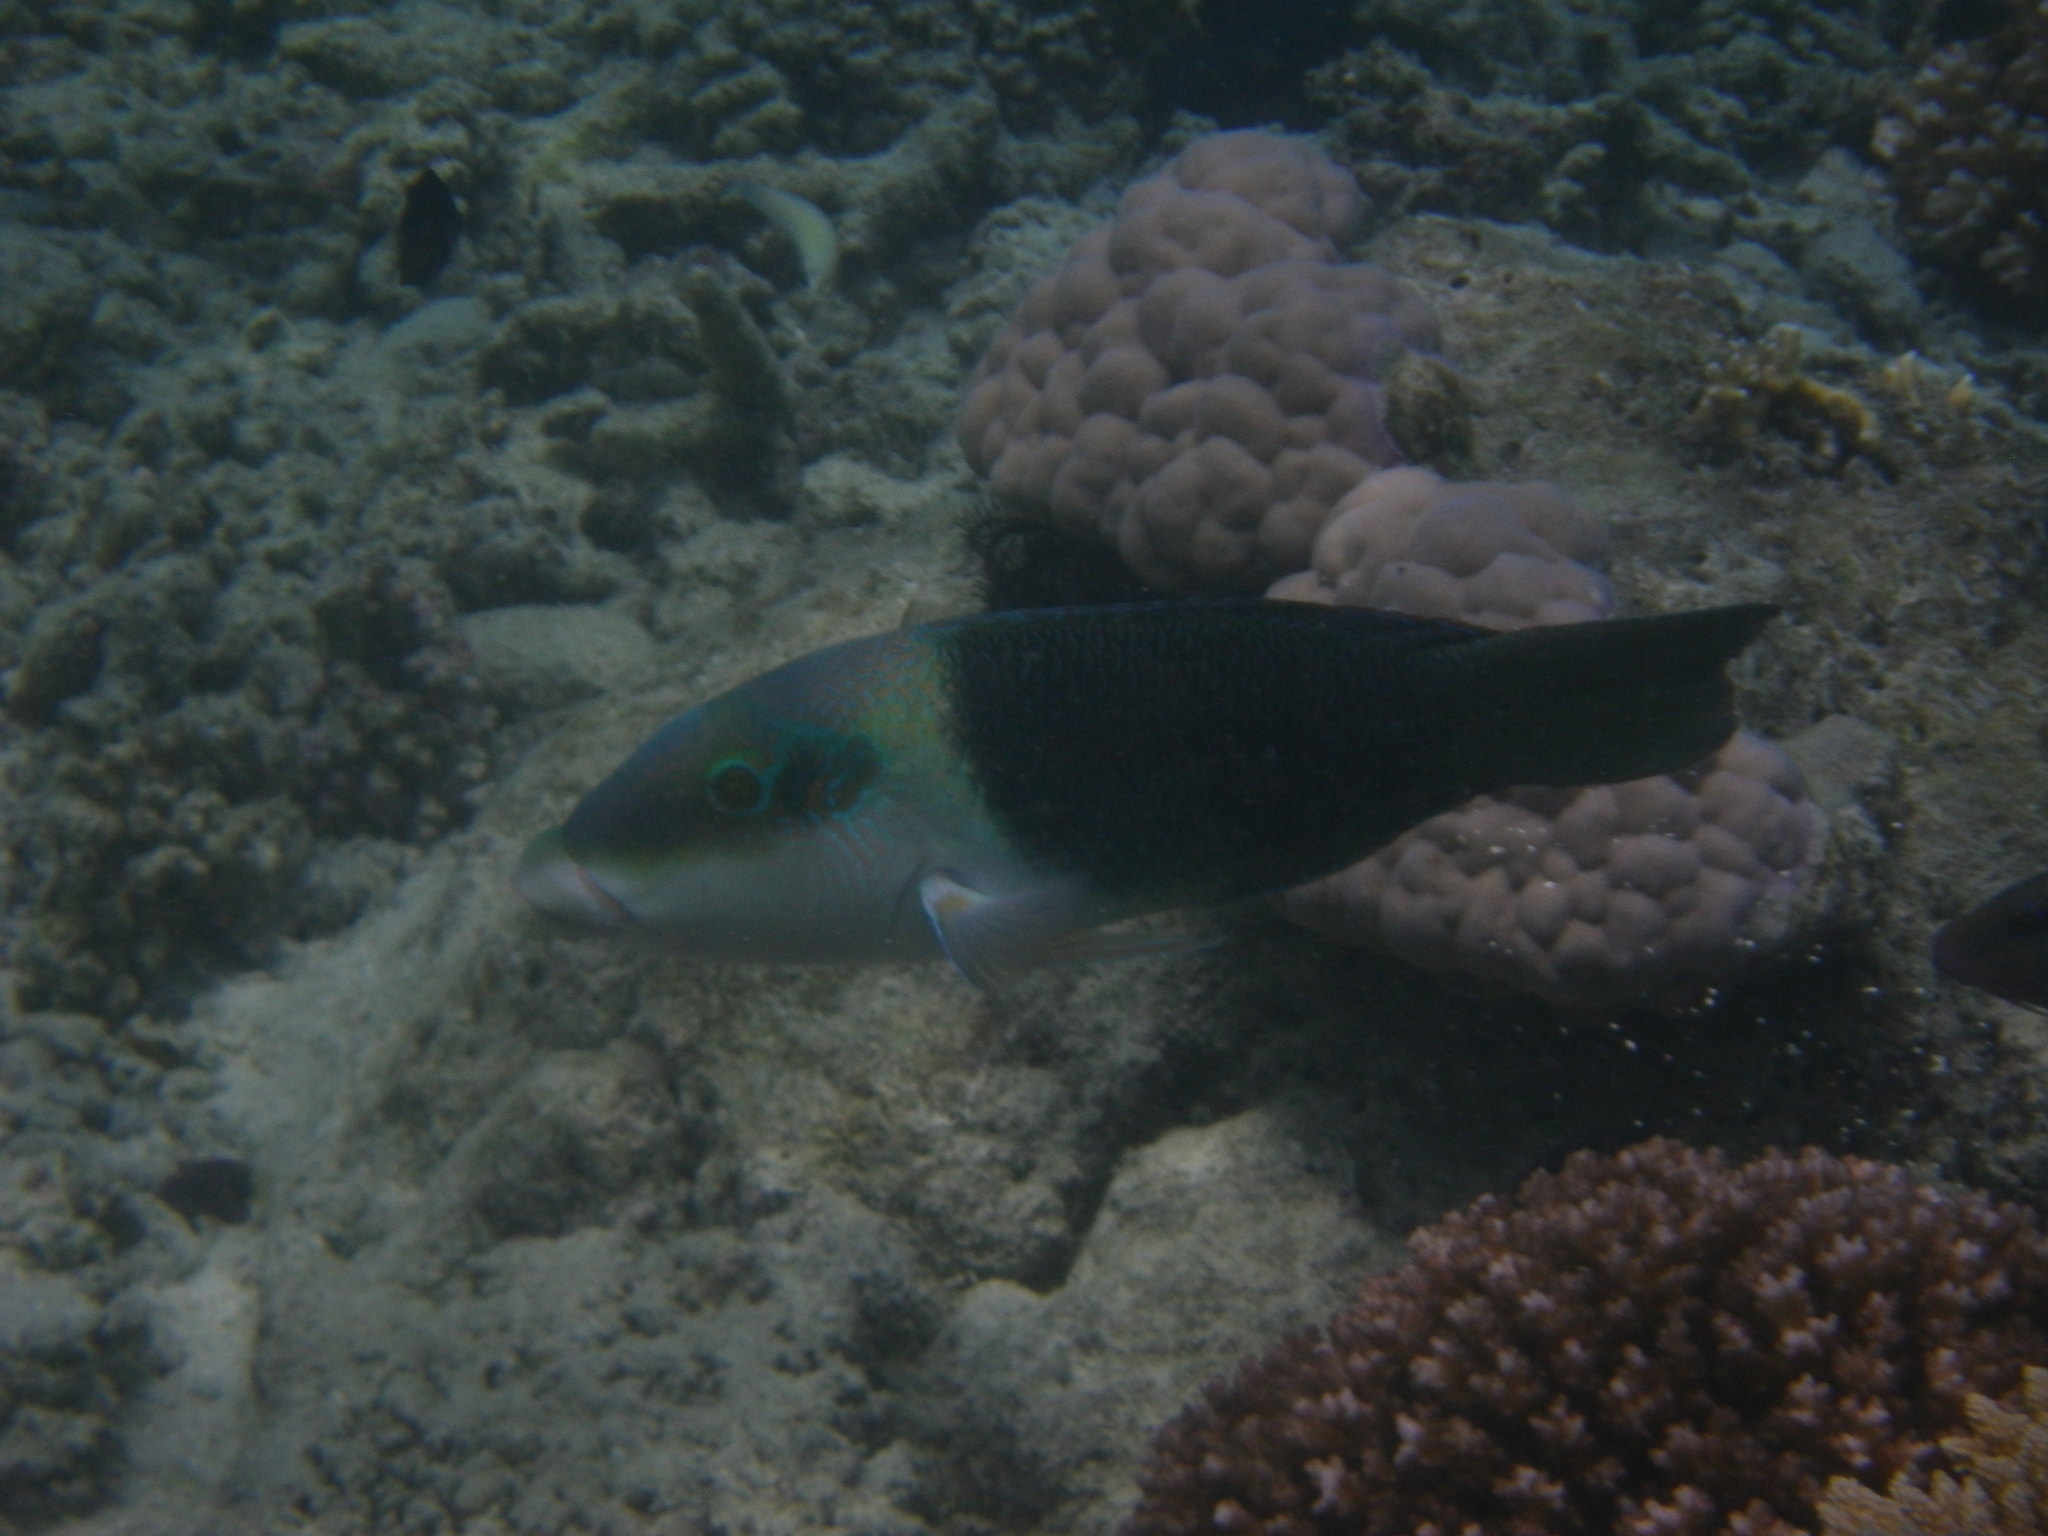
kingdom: Animalia
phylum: Chordata
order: Perciformes
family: Labridae
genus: Hemigymnus
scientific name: Hemigymnus melapterus
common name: Blackeye thicklip
